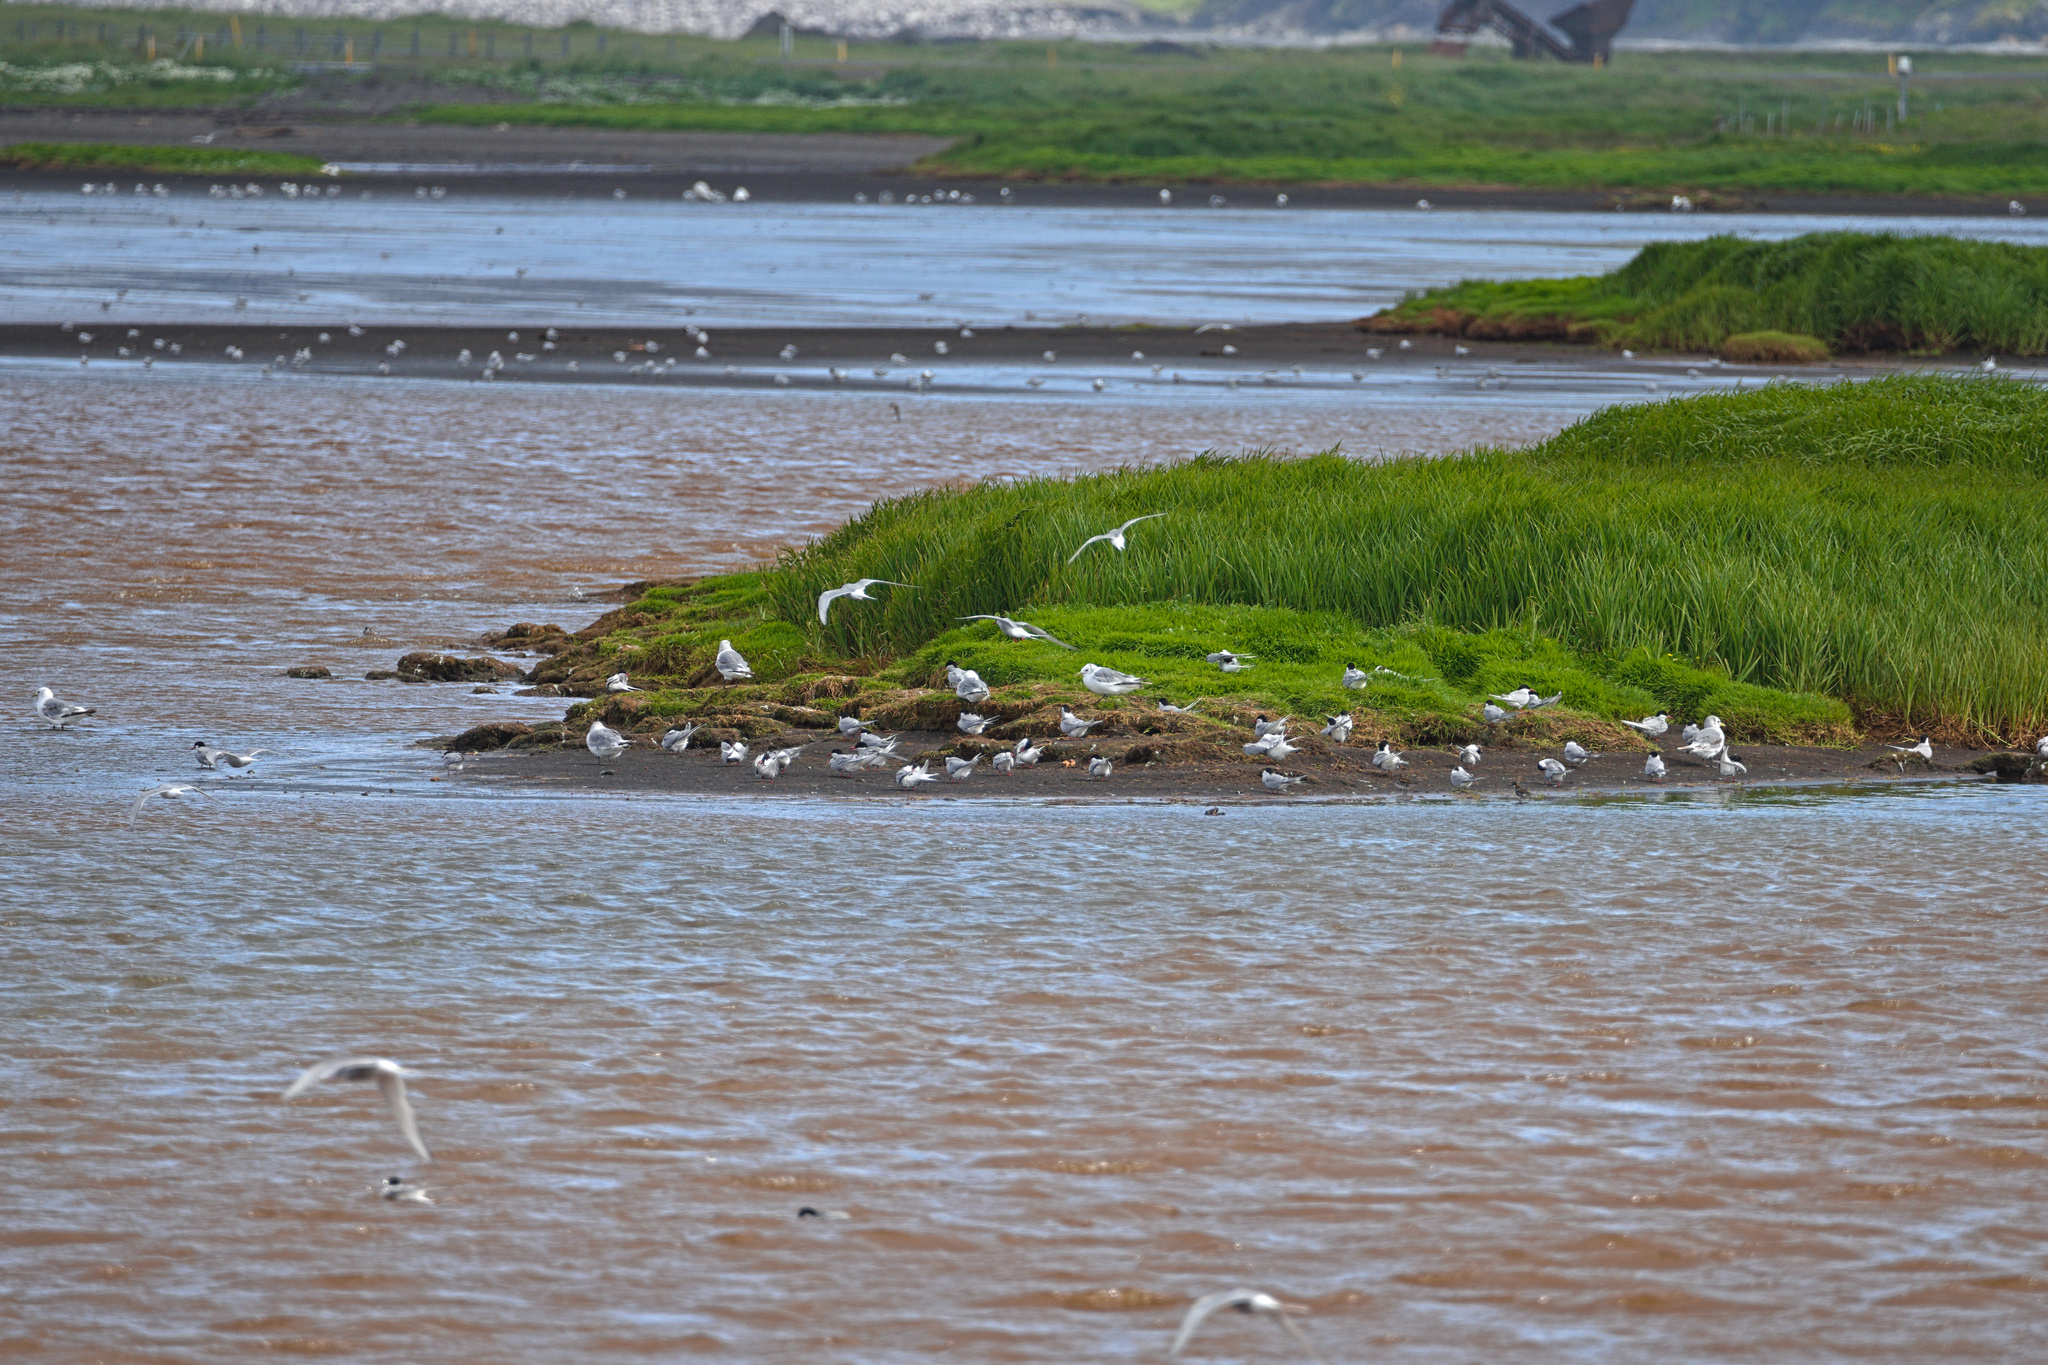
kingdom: Animalia
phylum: Chordata
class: Aves
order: Charadriiformes
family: Laridae
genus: Rissa
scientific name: Rissa tridactyla
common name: Black-legged kittiwake
